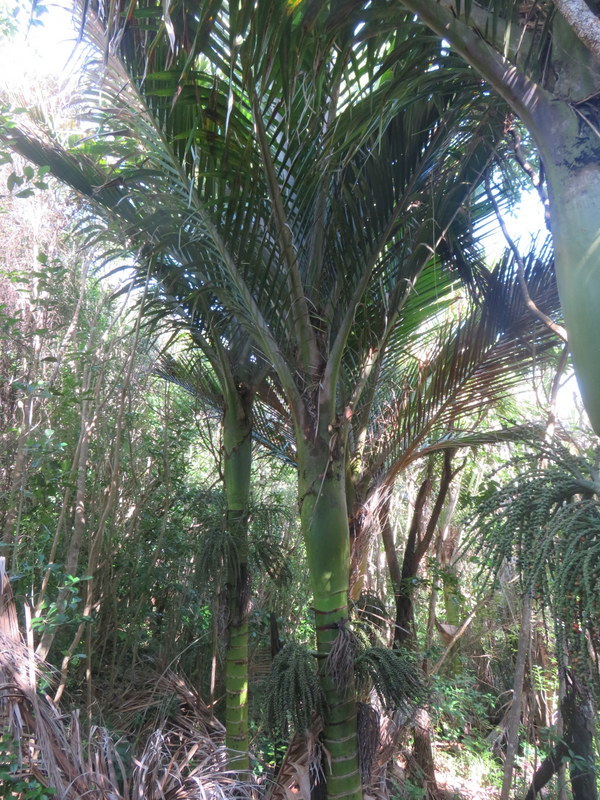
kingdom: Plantae
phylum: Tracheophyta
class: Liliopsida
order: Arecales
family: Arecaceae
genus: Rhopalostylis
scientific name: Rhopalostylis sapida
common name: Feather-duster palm
